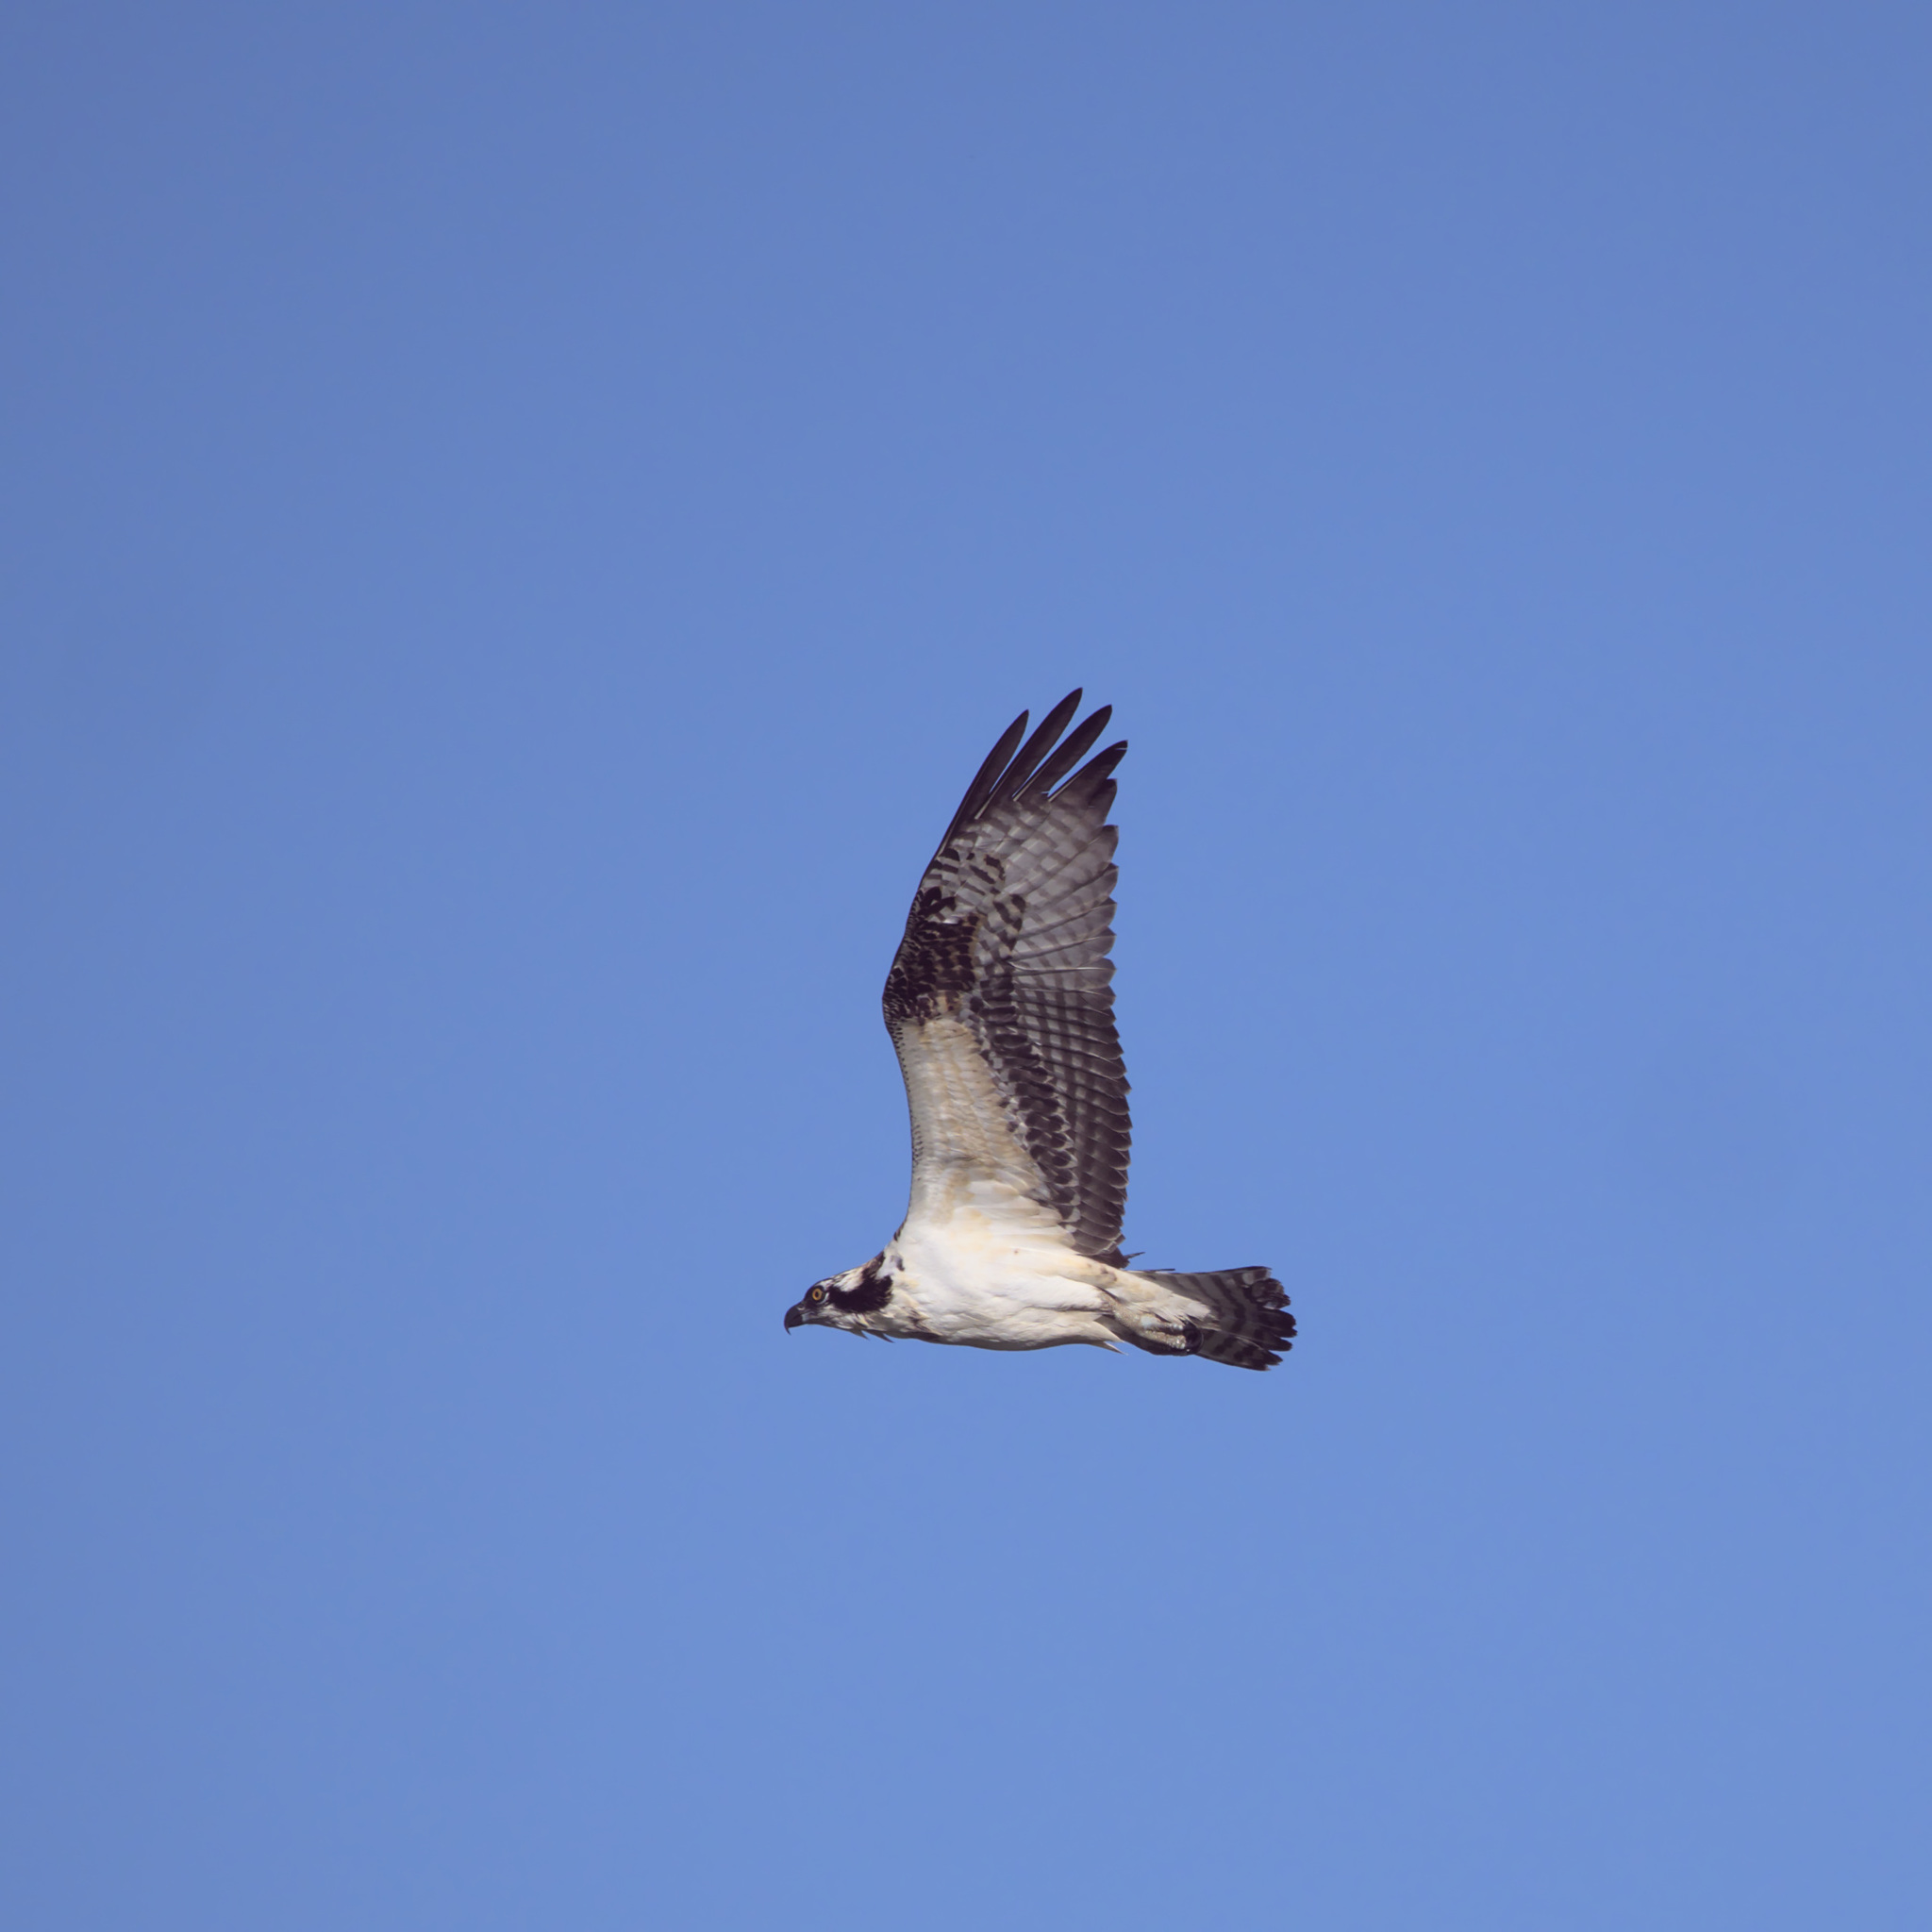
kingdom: Animalia
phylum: Chordata
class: Aves
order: Accipitriformes
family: Pandionidae
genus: Pandion
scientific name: Pandion haliaetus
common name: Osprey
